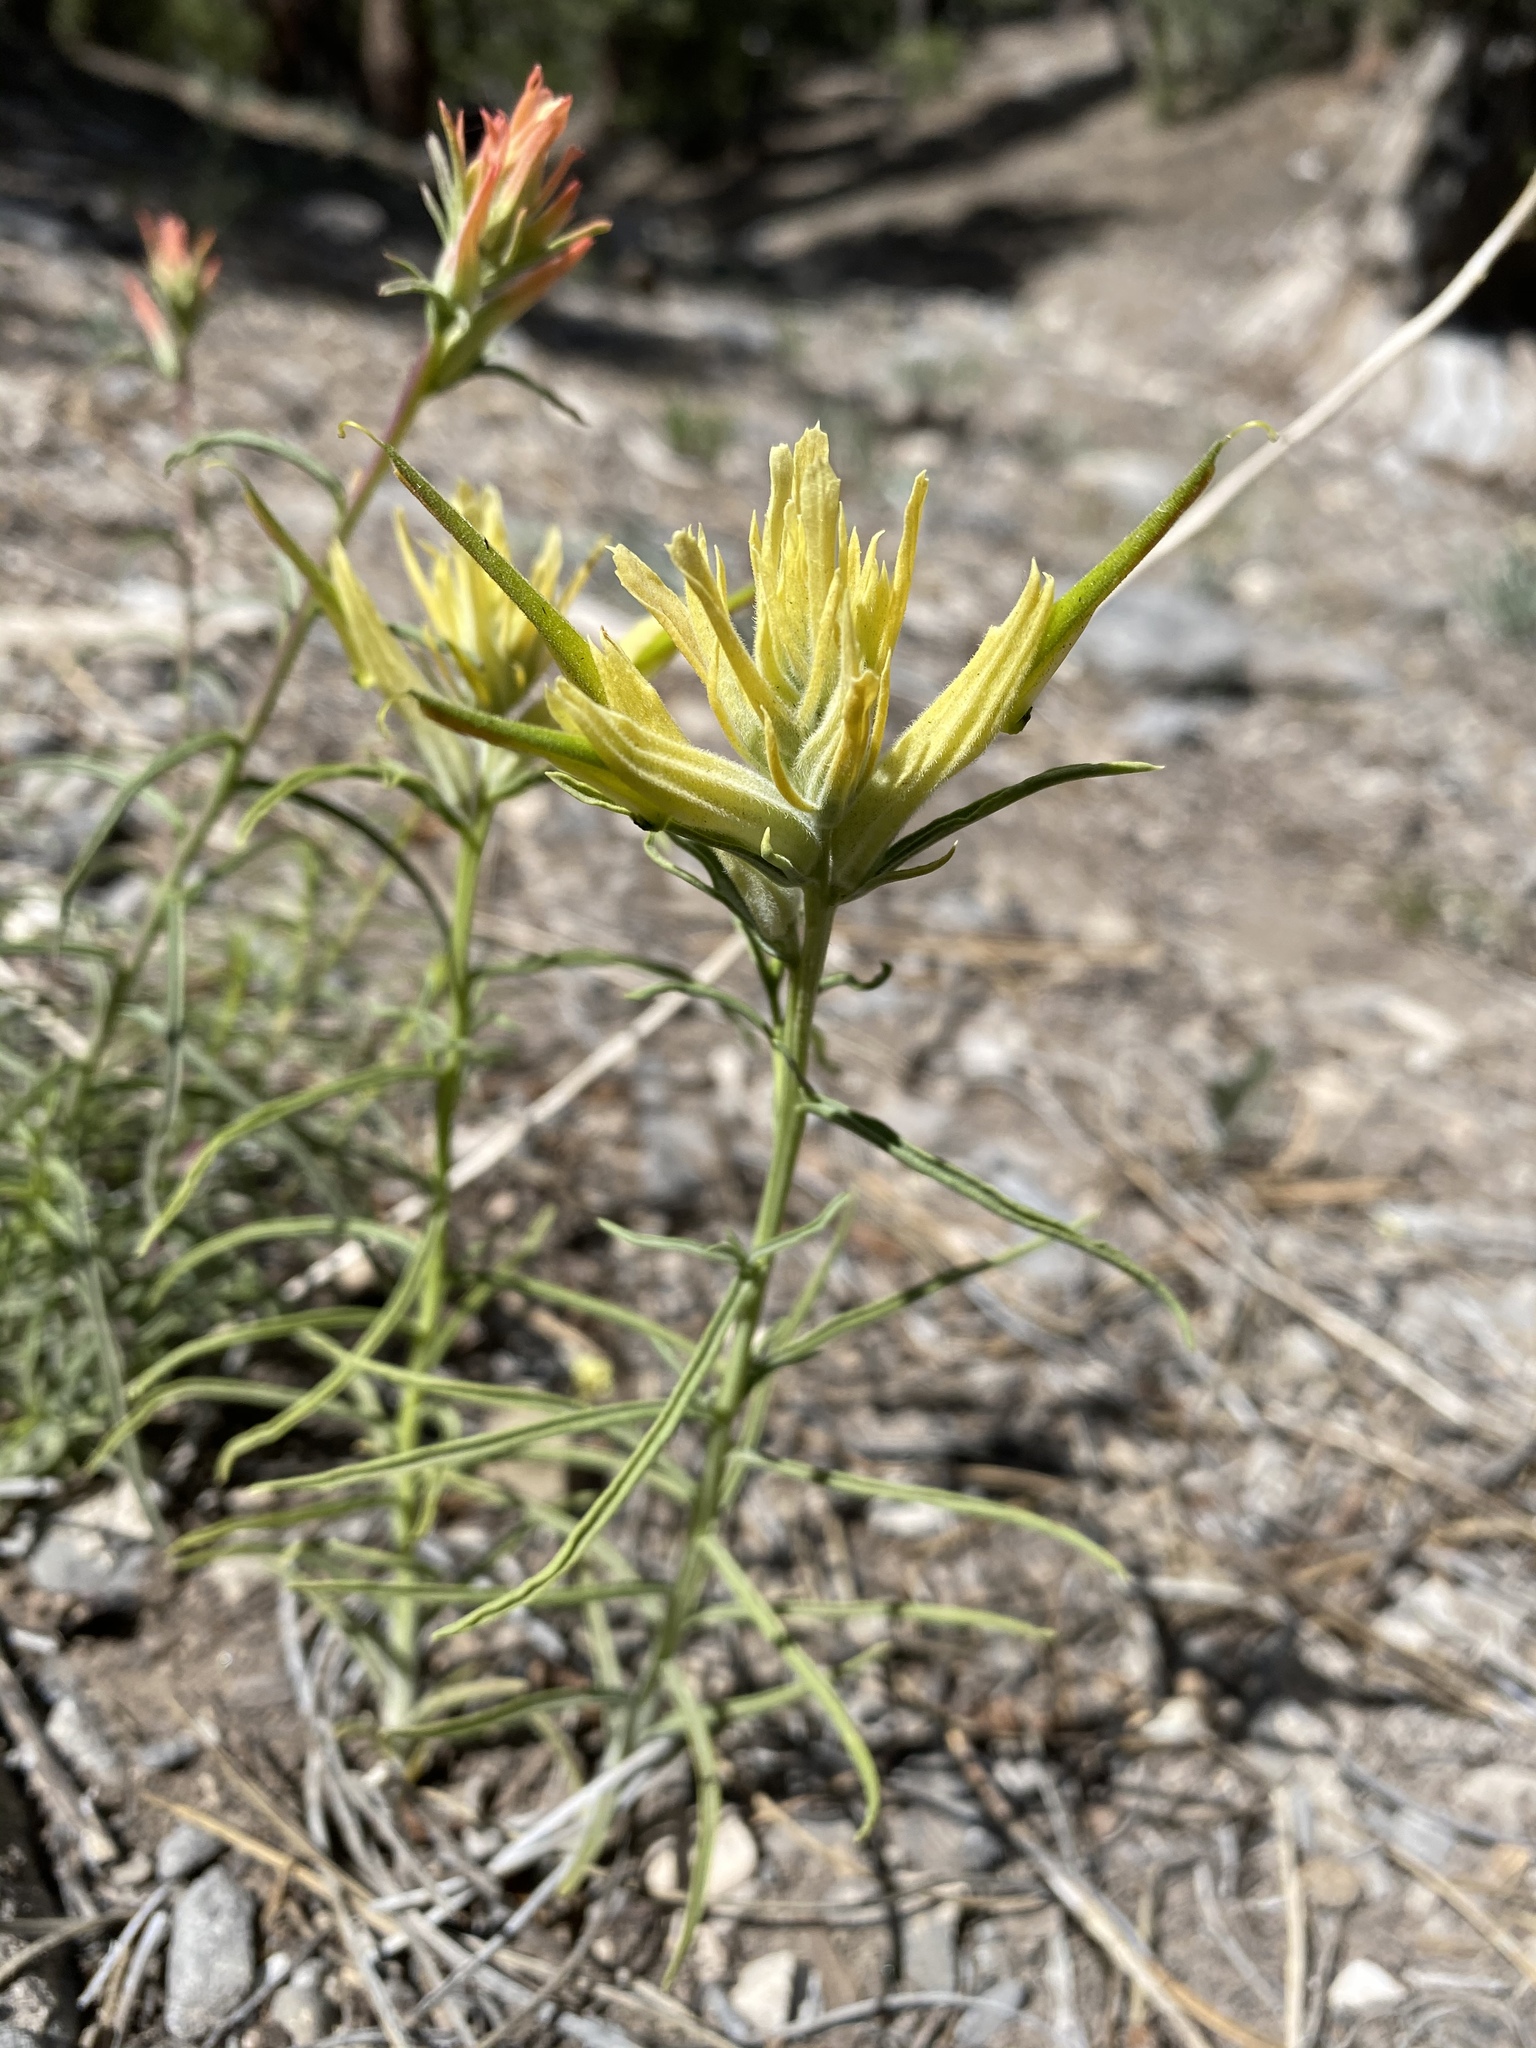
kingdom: Plantae
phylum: Tracheophyta
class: Magnoliopsida
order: Lamiales
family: Orobanchaceae
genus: Castilleja
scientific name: Castilleja linariifolia
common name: Wyoming paintbrush
